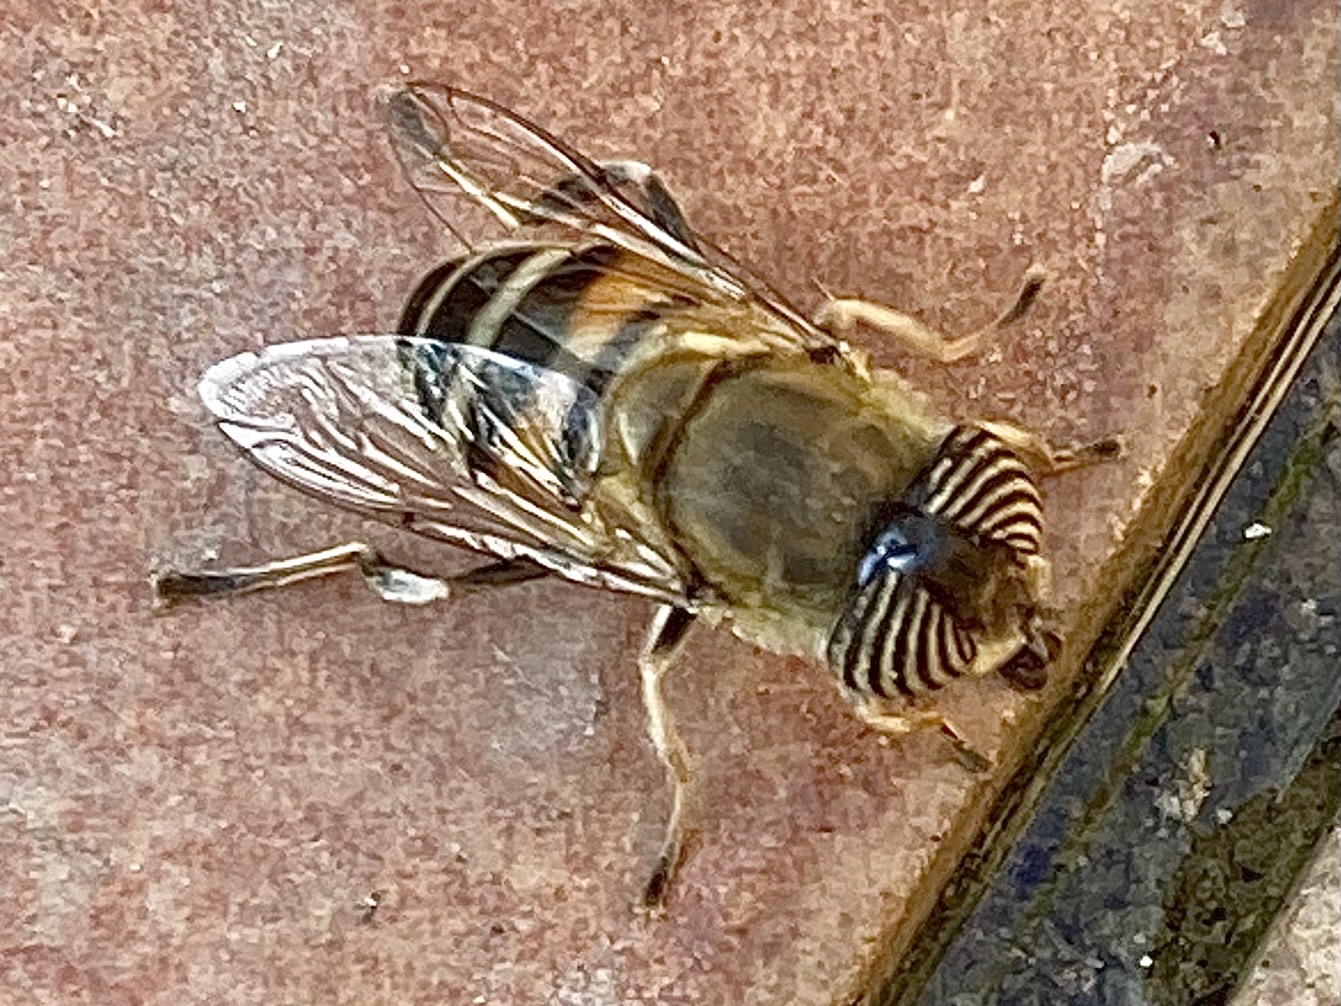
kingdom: Animalia
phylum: Arthropoda
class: Insecta
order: Diptera
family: Syrphidae
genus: Eristalinus
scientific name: Eristalinus taeniops
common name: Syrphid fly
